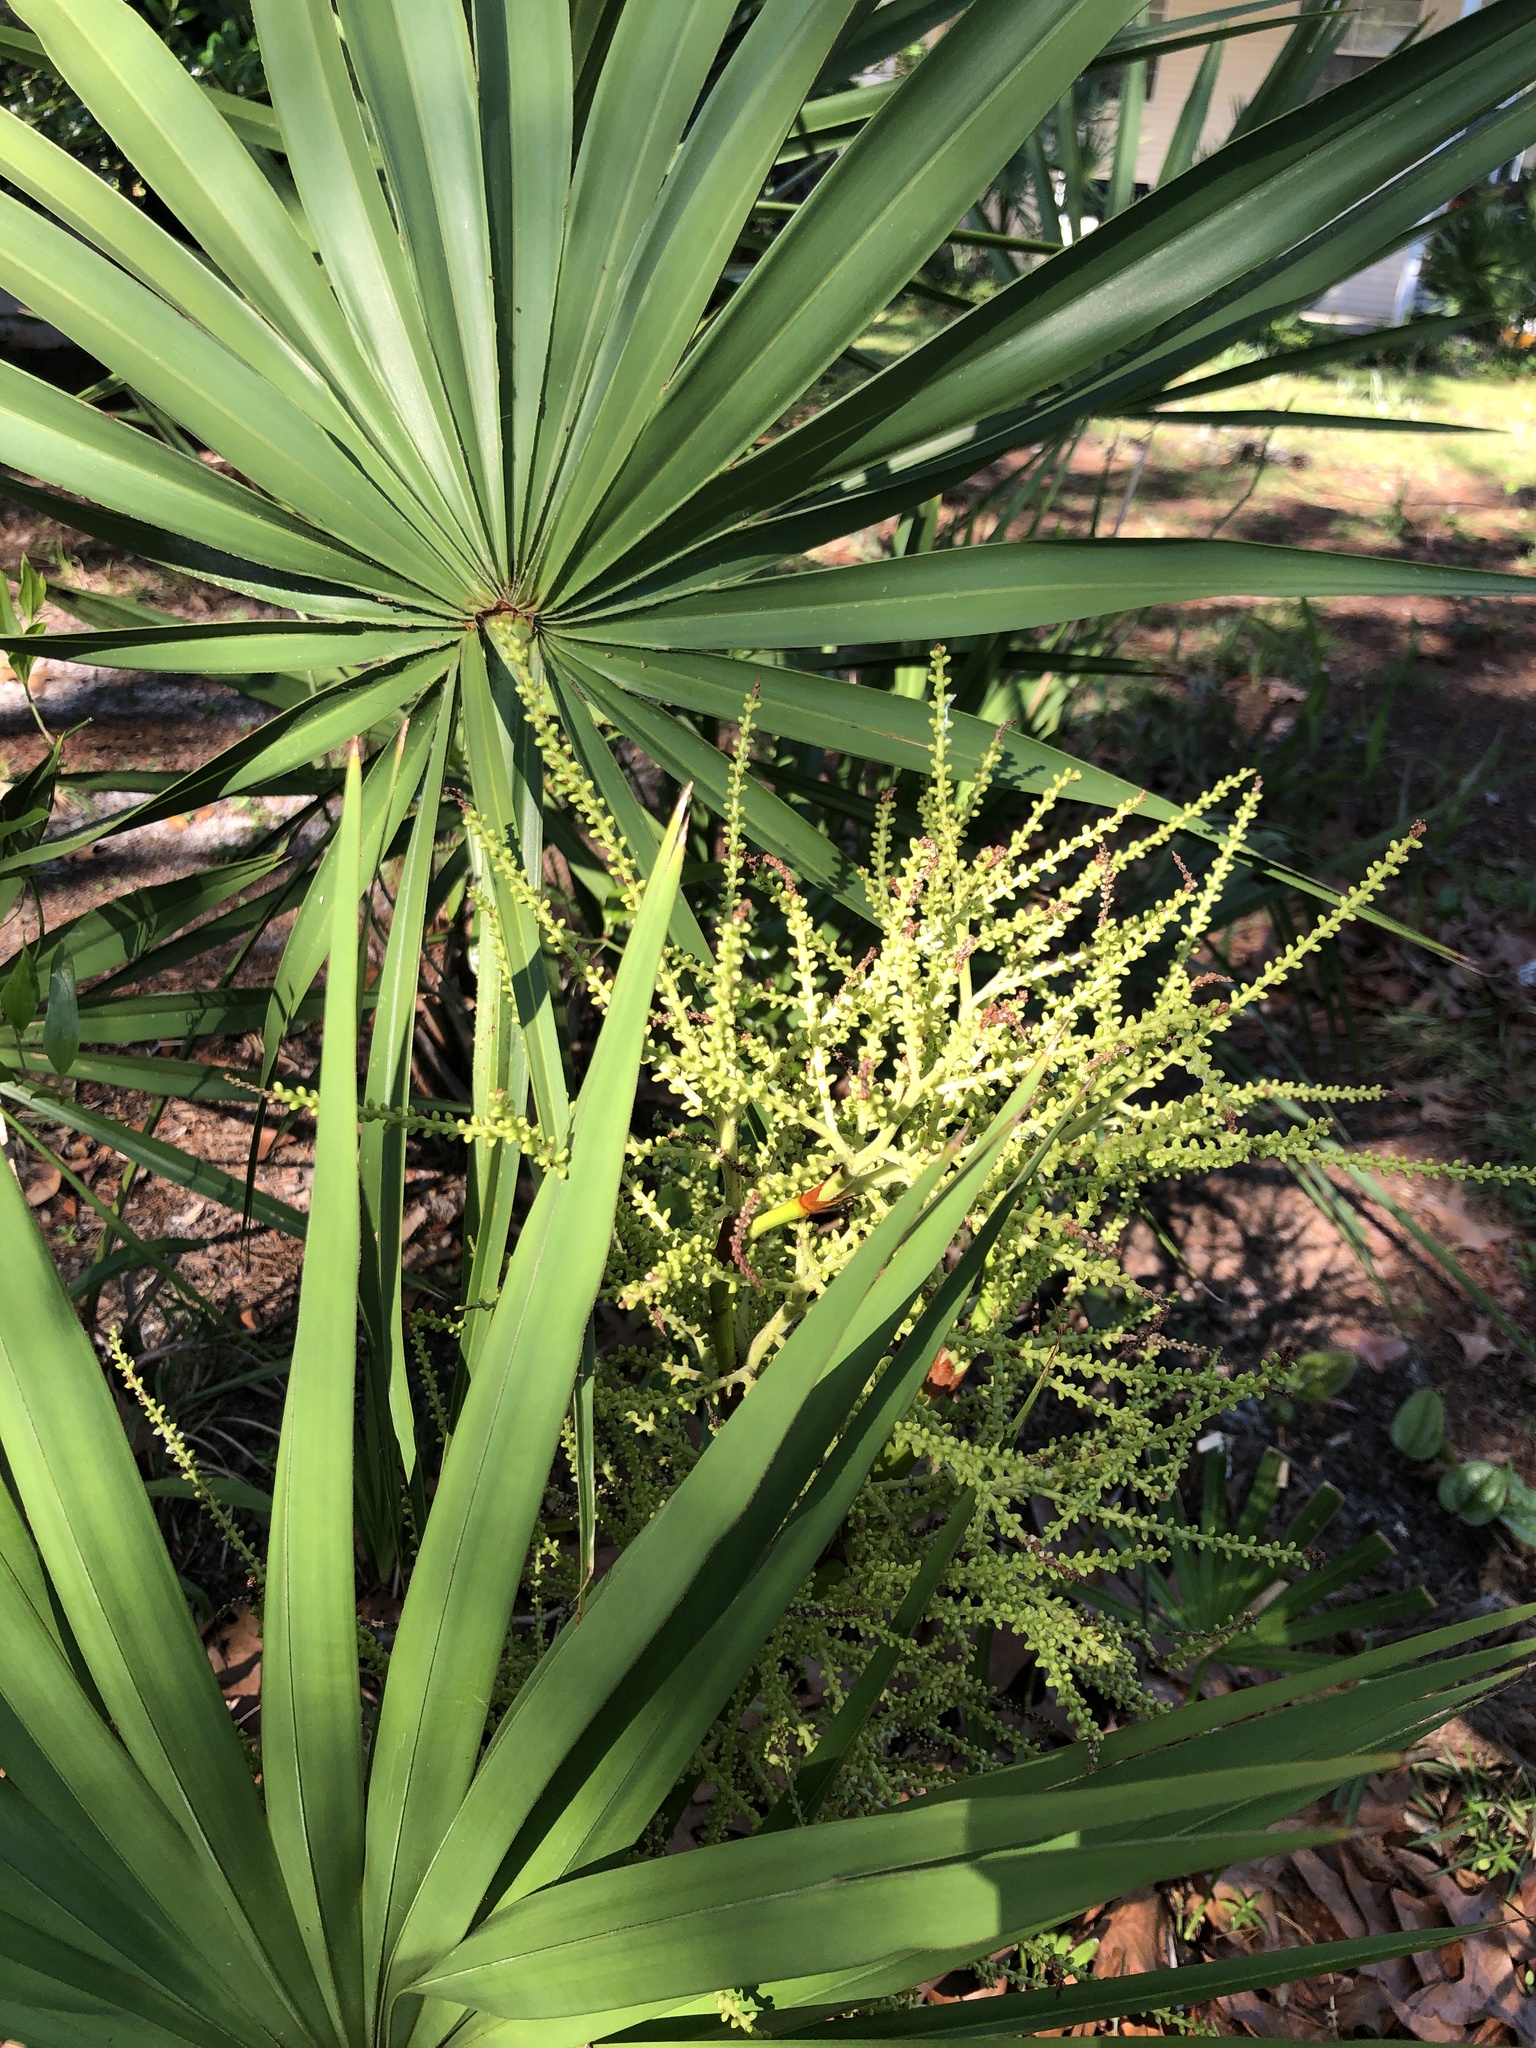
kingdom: Plantae
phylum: Tracheophyta
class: Liliopsida
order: Arecales
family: Arecaceae
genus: Serenoa
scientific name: Serenoa repens
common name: Saw-palmetto
